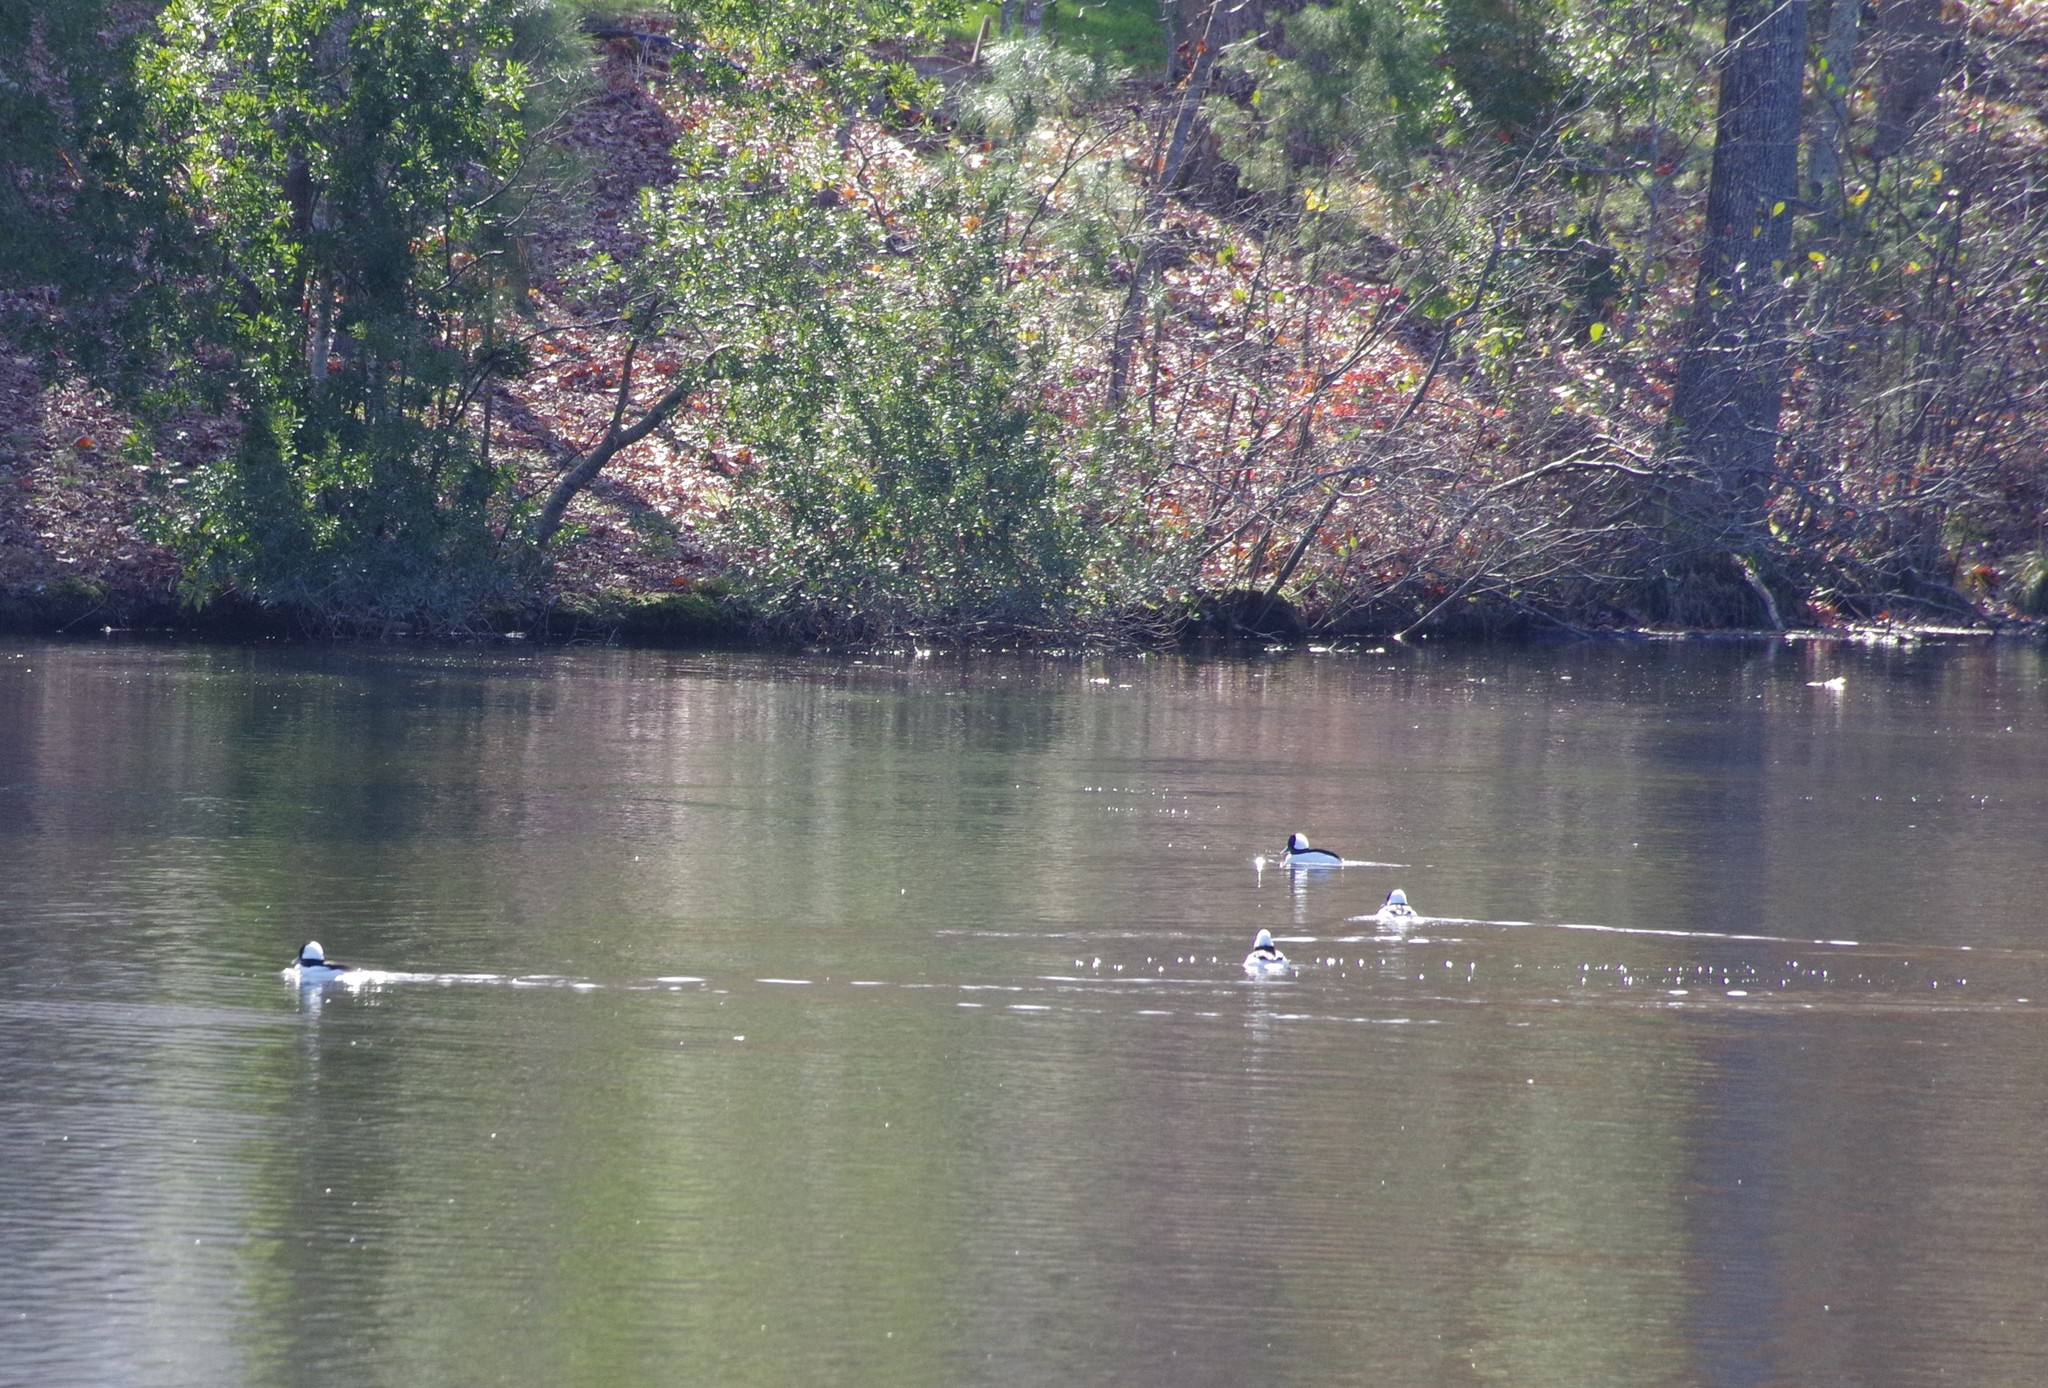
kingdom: Animalia
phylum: Chordata
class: Aves
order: Anseriformes
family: Anatidae
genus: Bucephala
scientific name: Bucephala albeola
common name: Bufflehead
